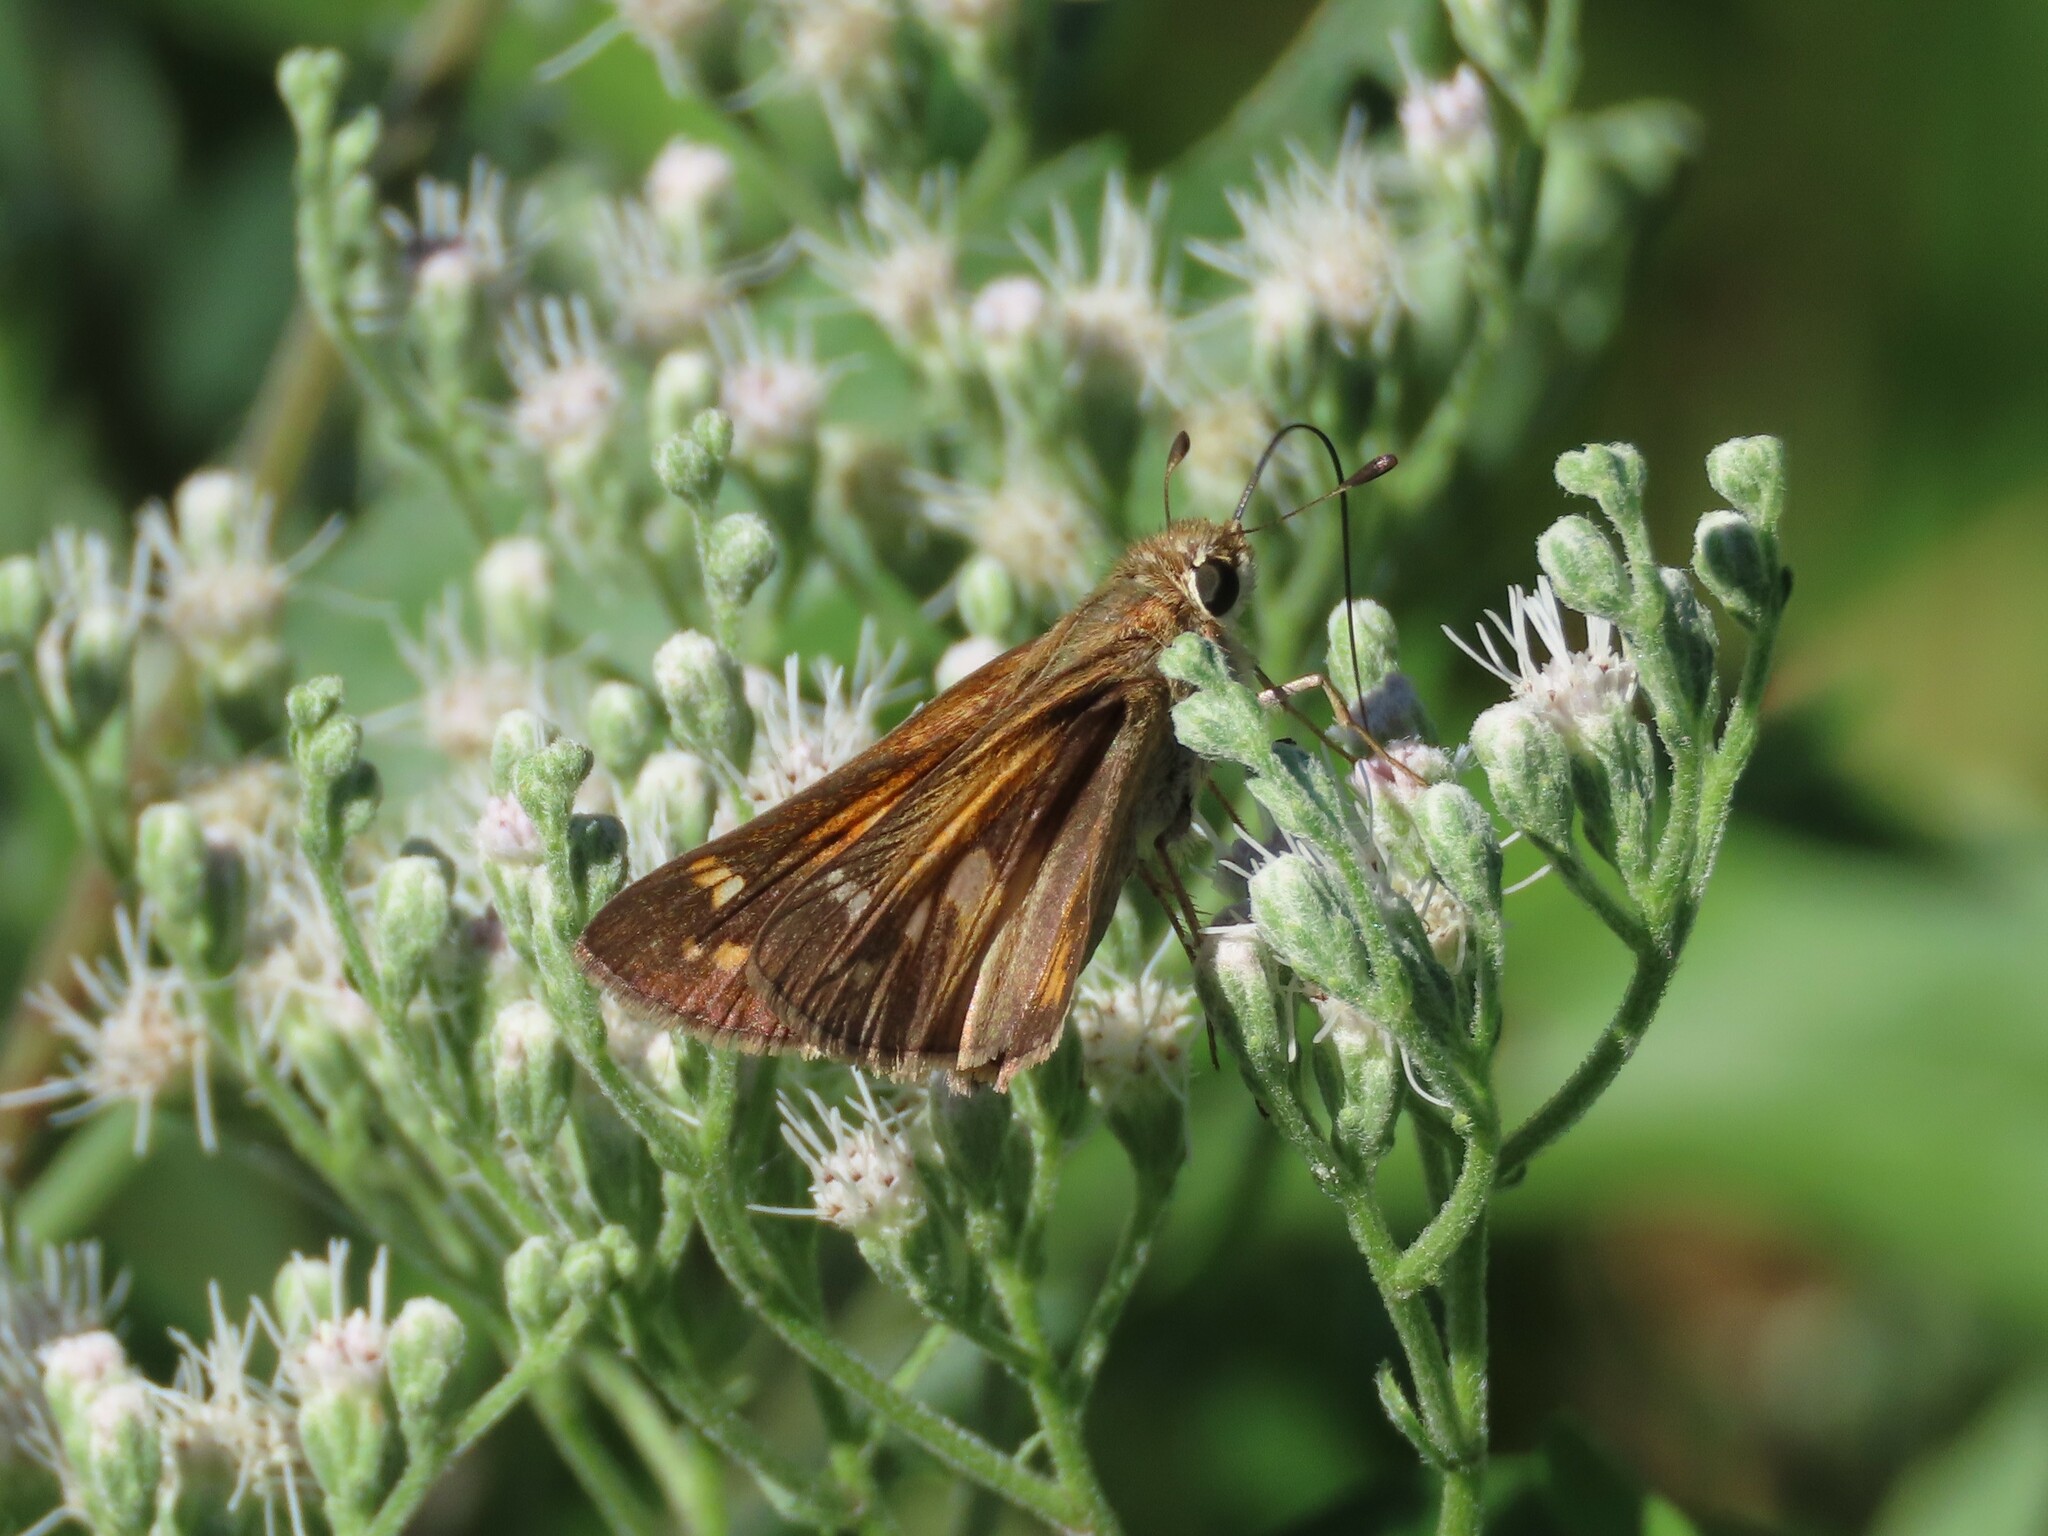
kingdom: Animalia
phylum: Arthropoda
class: Insecta
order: Lepidoptera
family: Hesperiidae
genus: Atalopedes
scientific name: Atalopedes
